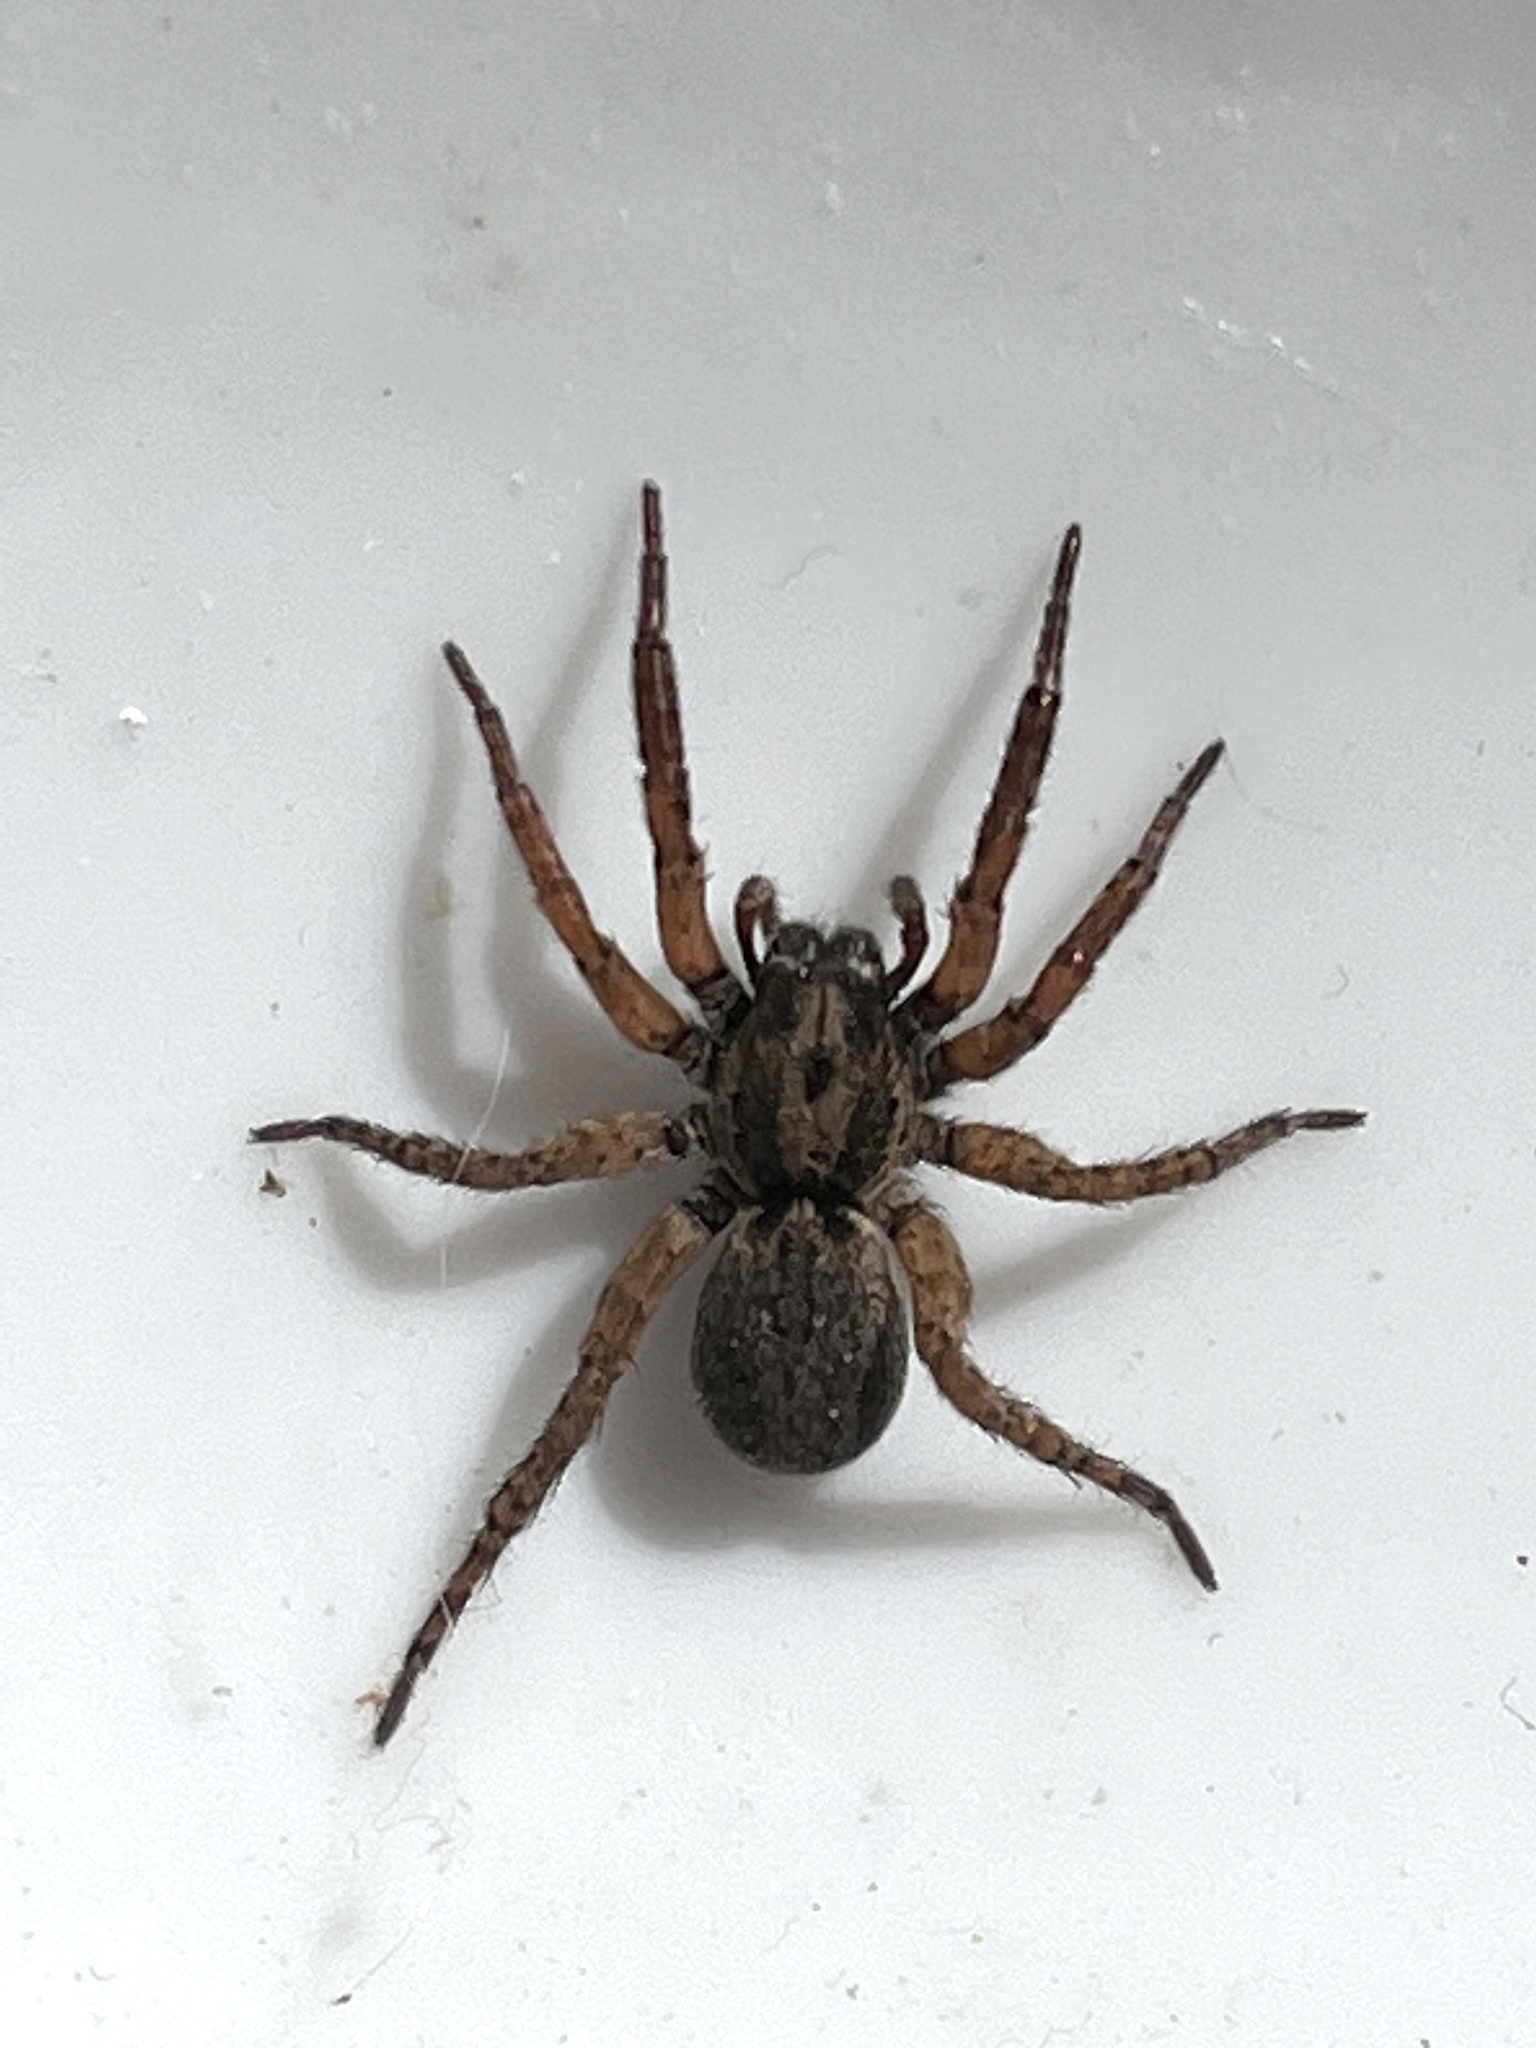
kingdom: Animalia
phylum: Arthropoda
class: Arachnida
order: Araneae
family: Lycosidae
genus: Trochosa
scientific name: Trochosa sepulchralis
